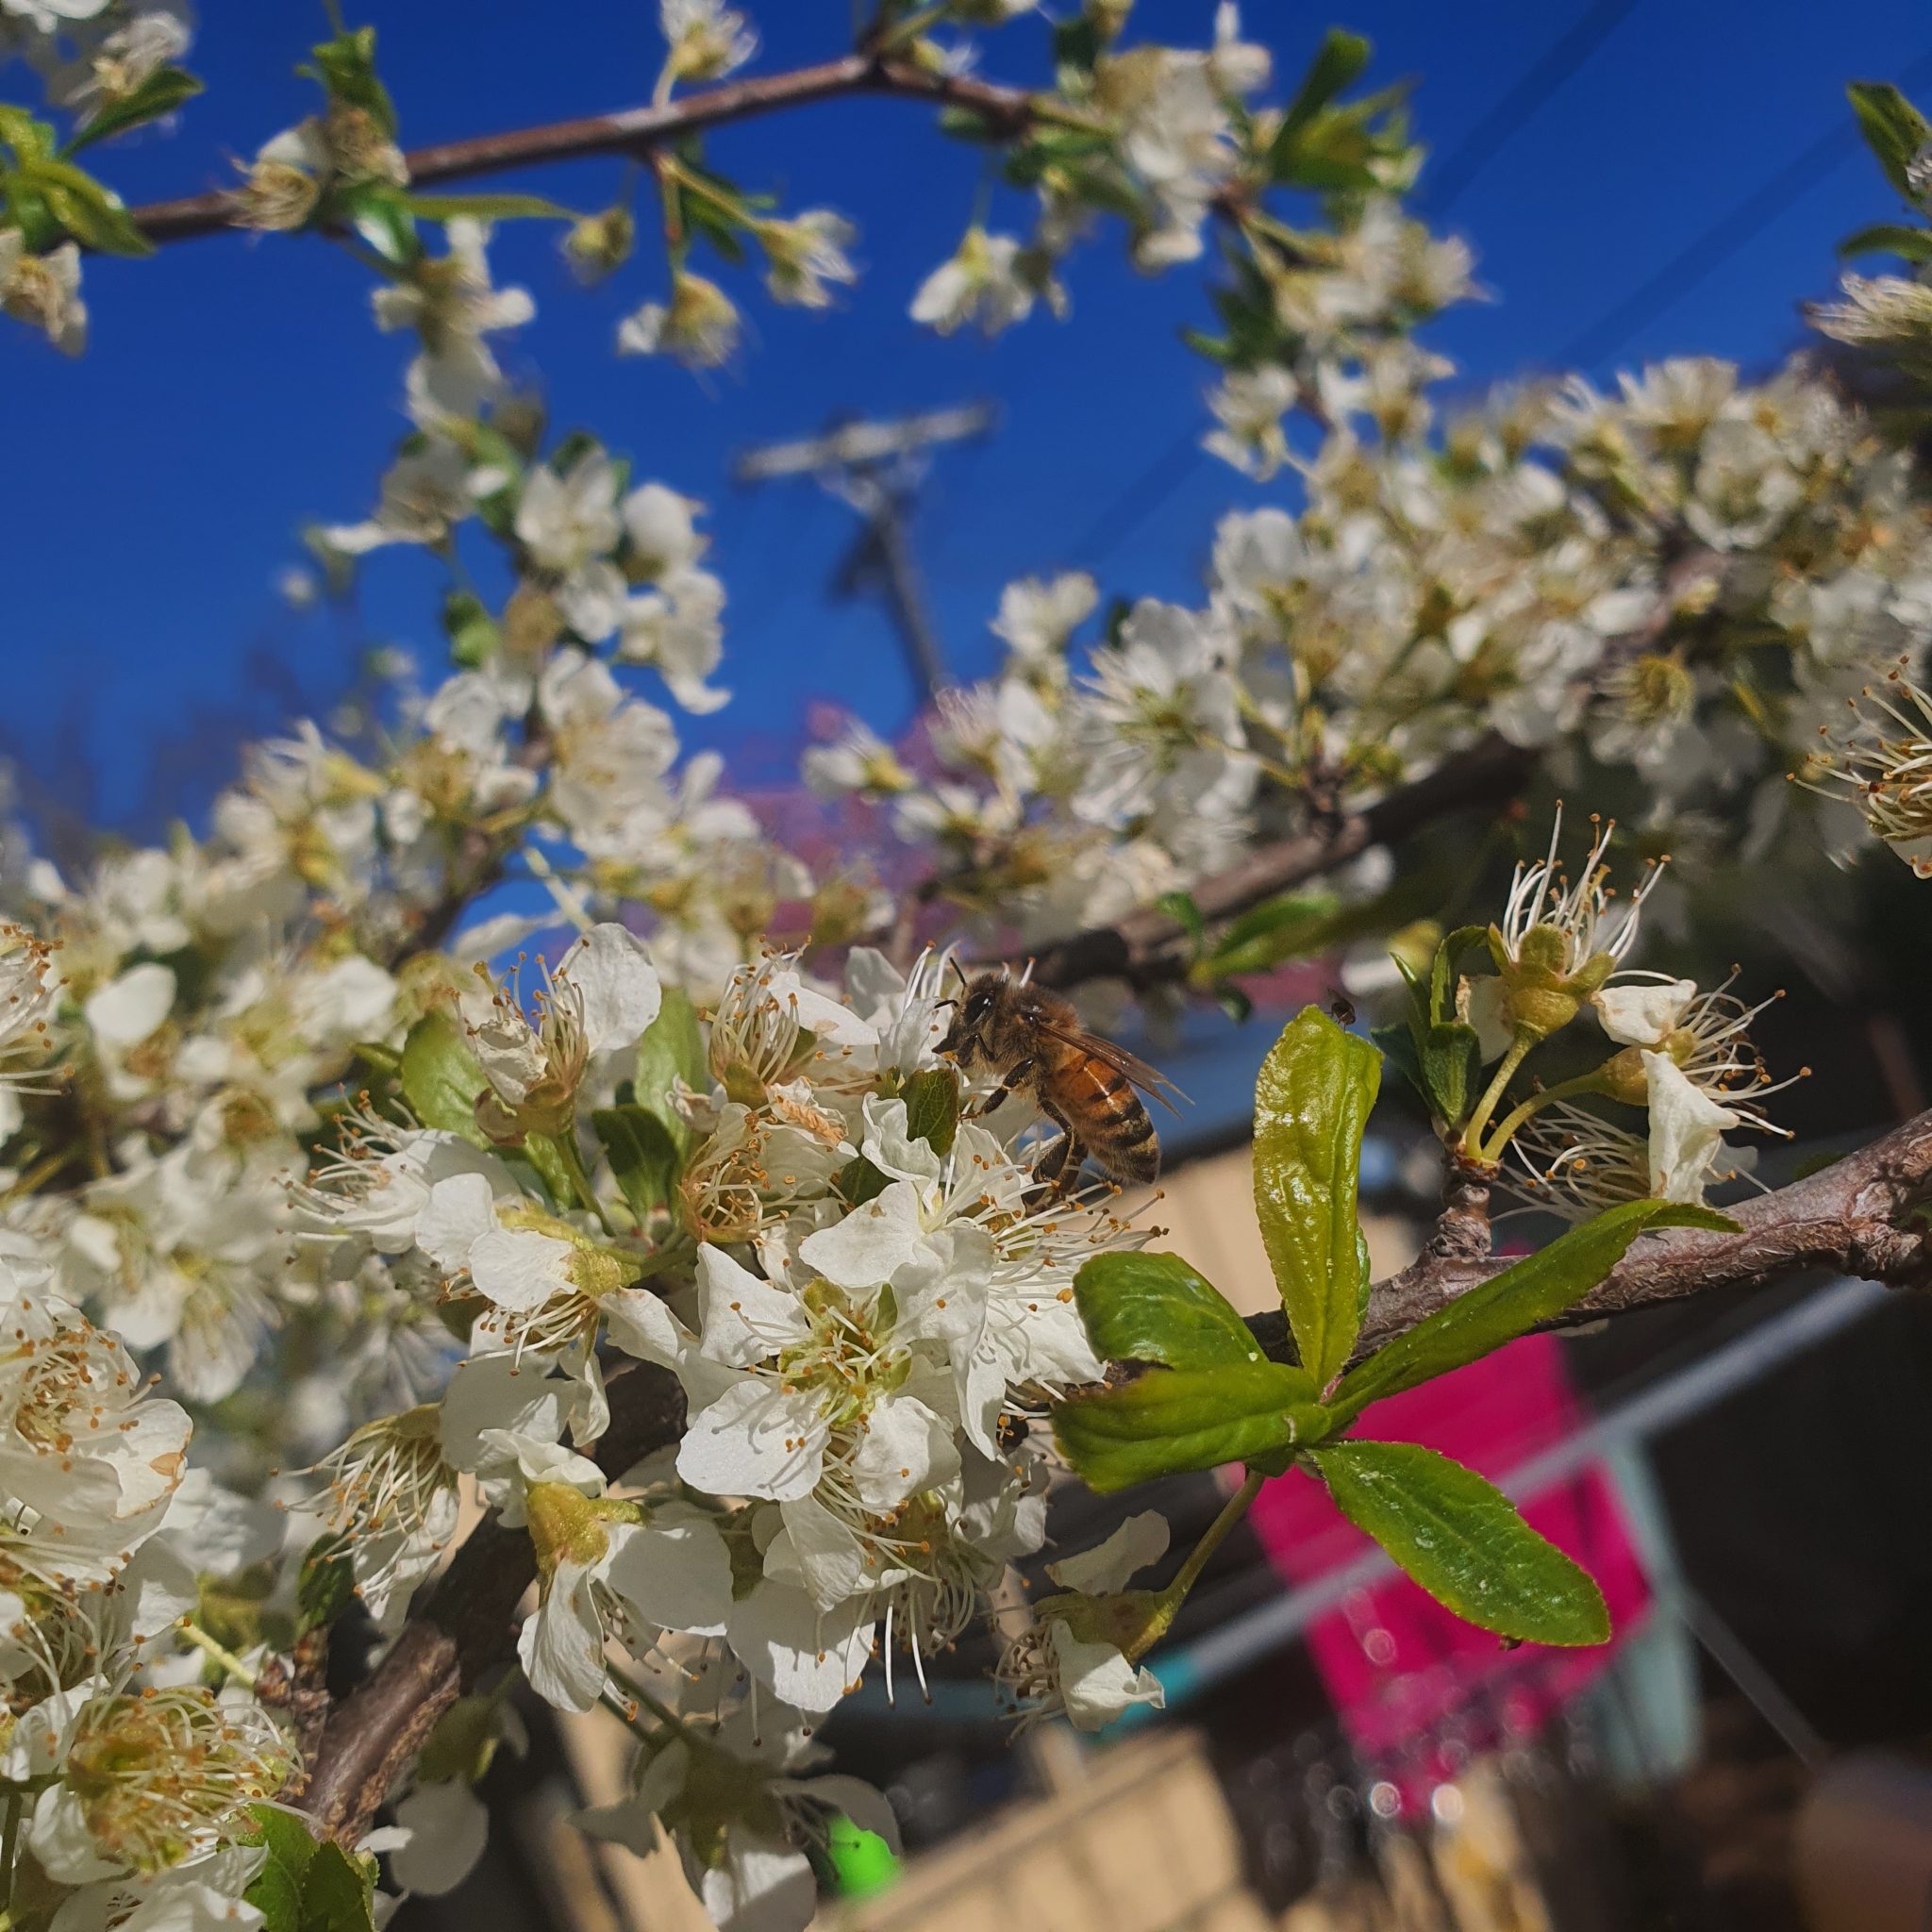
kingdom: Animalia
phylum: Arthropoda
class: Insecta
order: Hymenoptera
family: Apidae
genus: Apis
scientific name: Apis mellifera
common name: Honey bee
